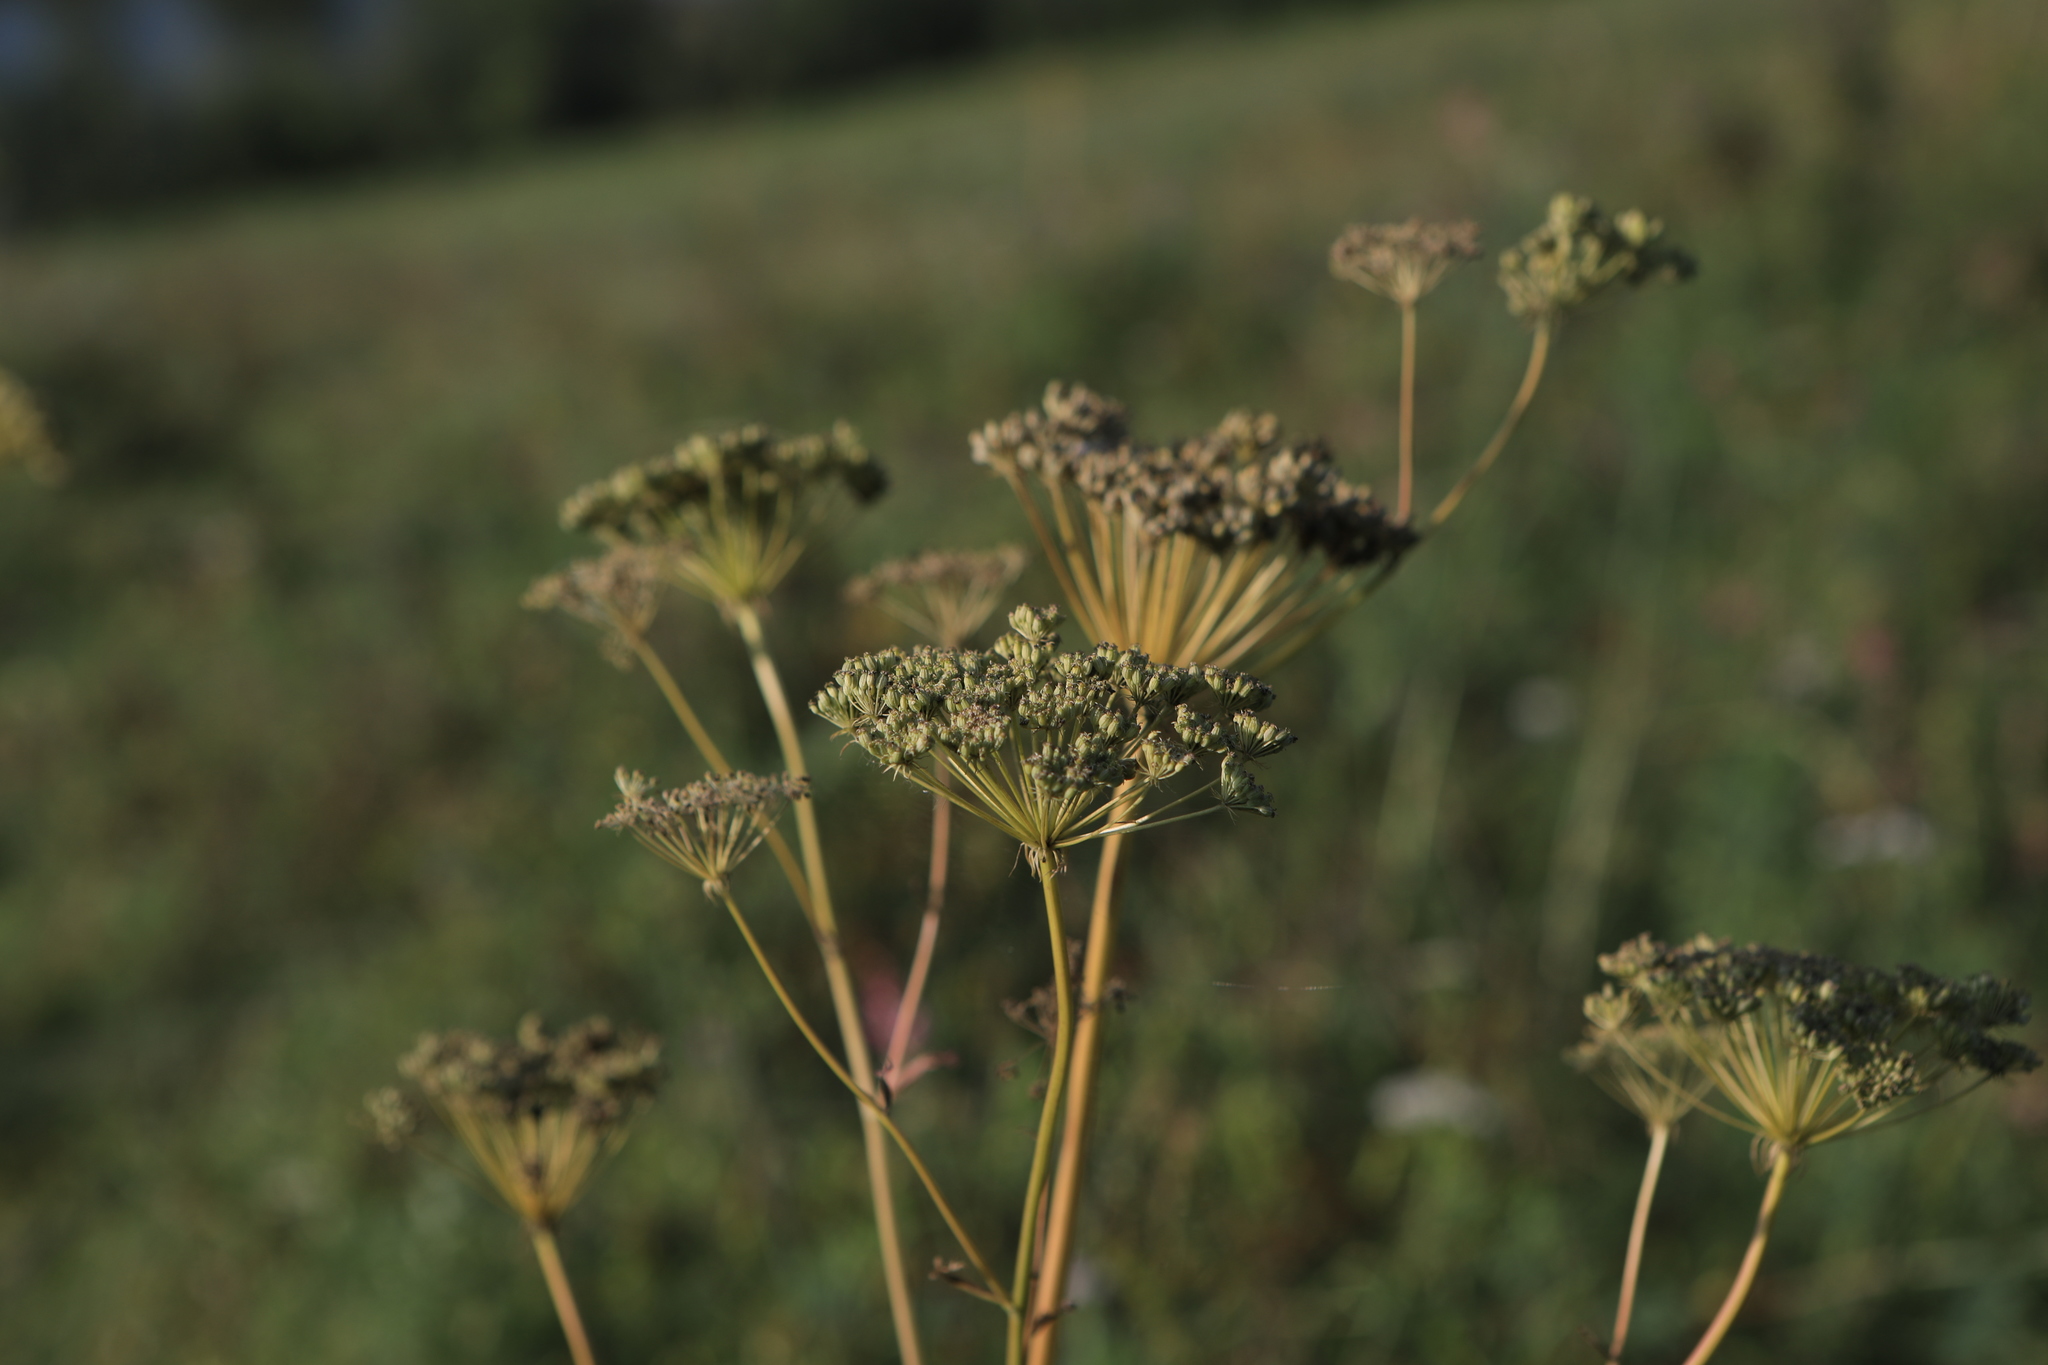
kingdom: Plantae
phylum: Tracheophyta
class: Magnoliopsida
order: Apiales
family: Apiaceae
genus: Seseli
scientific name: Seseli libanotis
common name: Mooncarrot
